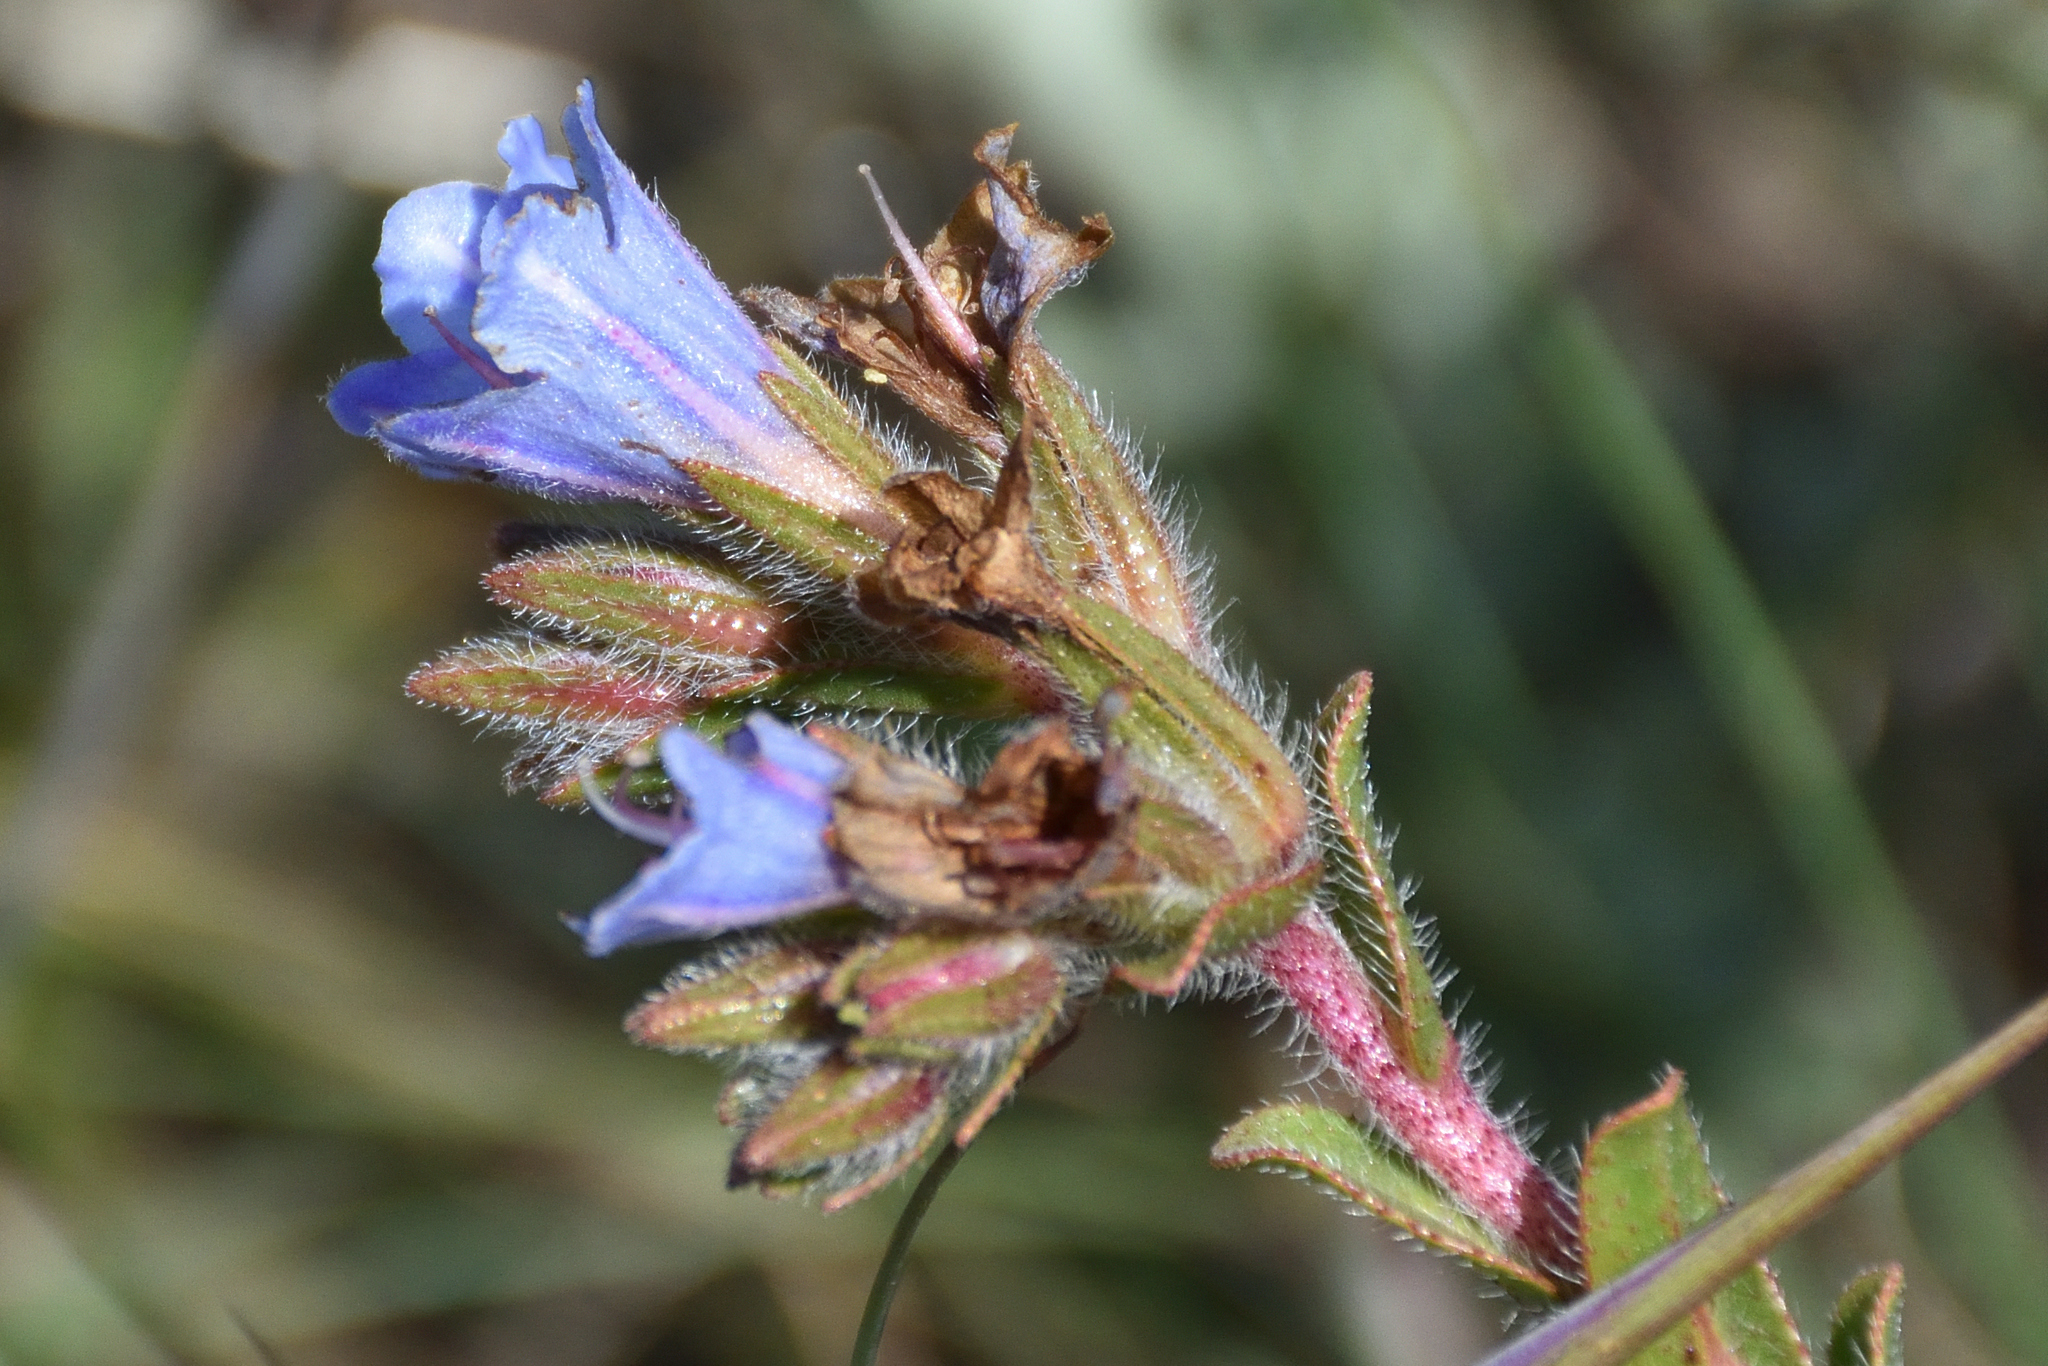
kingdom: Plantae
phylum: Tracheophyta
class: Magnoliopsida
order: Boraginales
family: Boraginaceae
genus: Lobostemon
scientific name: Lobostemon trigonus
